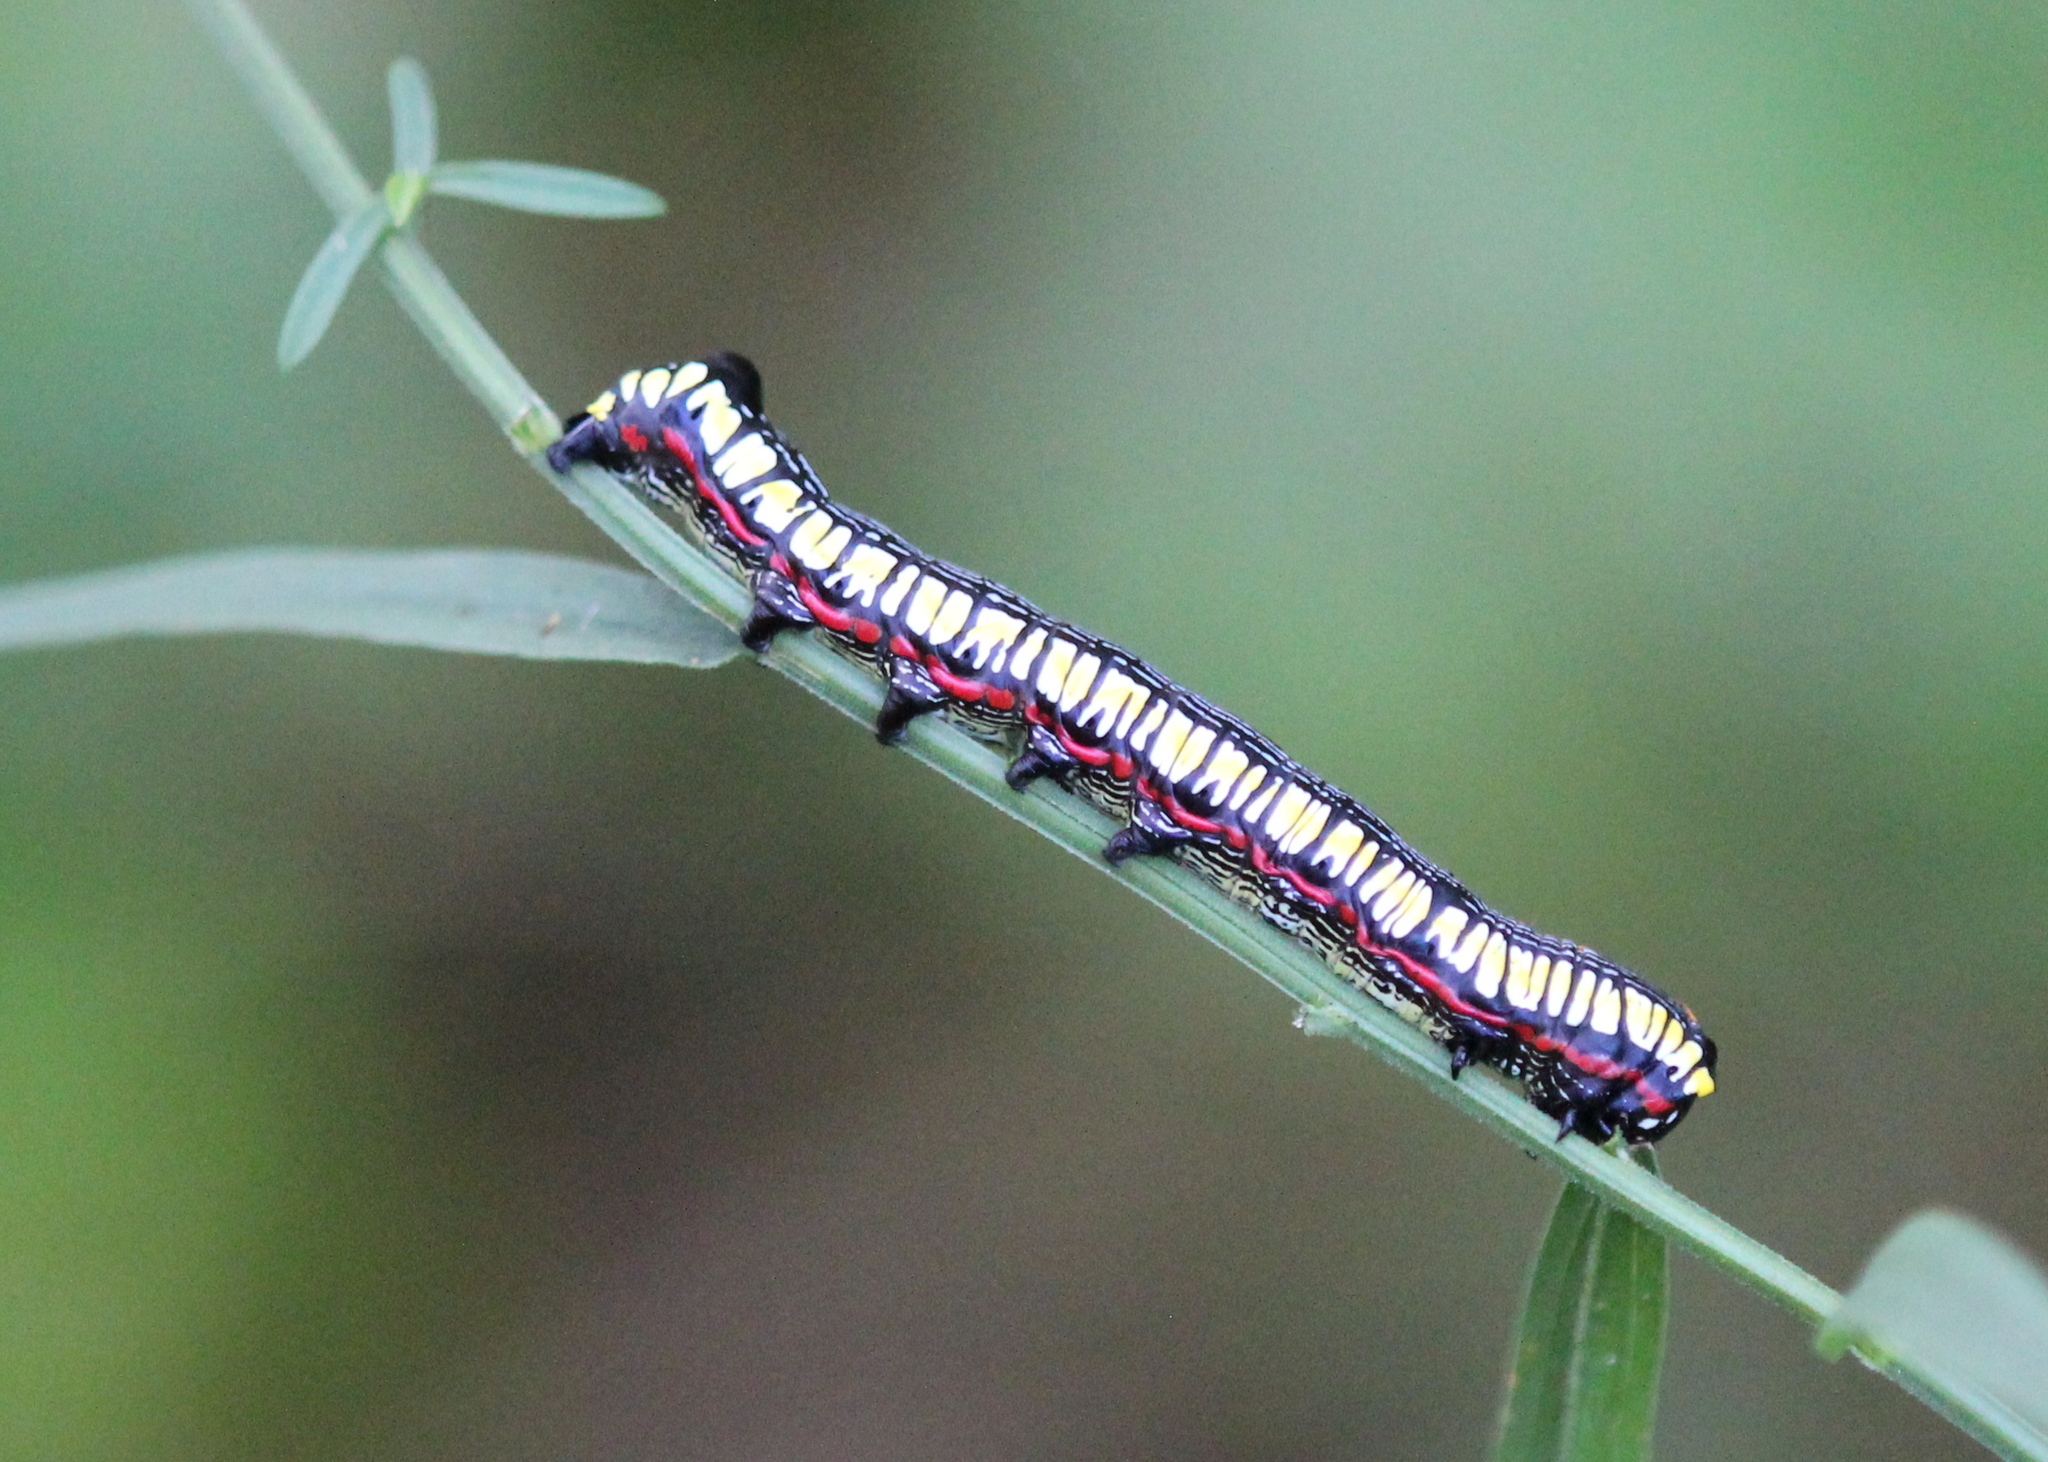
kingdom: Animalia
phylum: Arthropoda
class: Insecta
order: Lepidoptera
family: Noctuidae
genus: Cucullia
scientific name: Cucullia convexipennis
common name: Brown-hooded owlet
